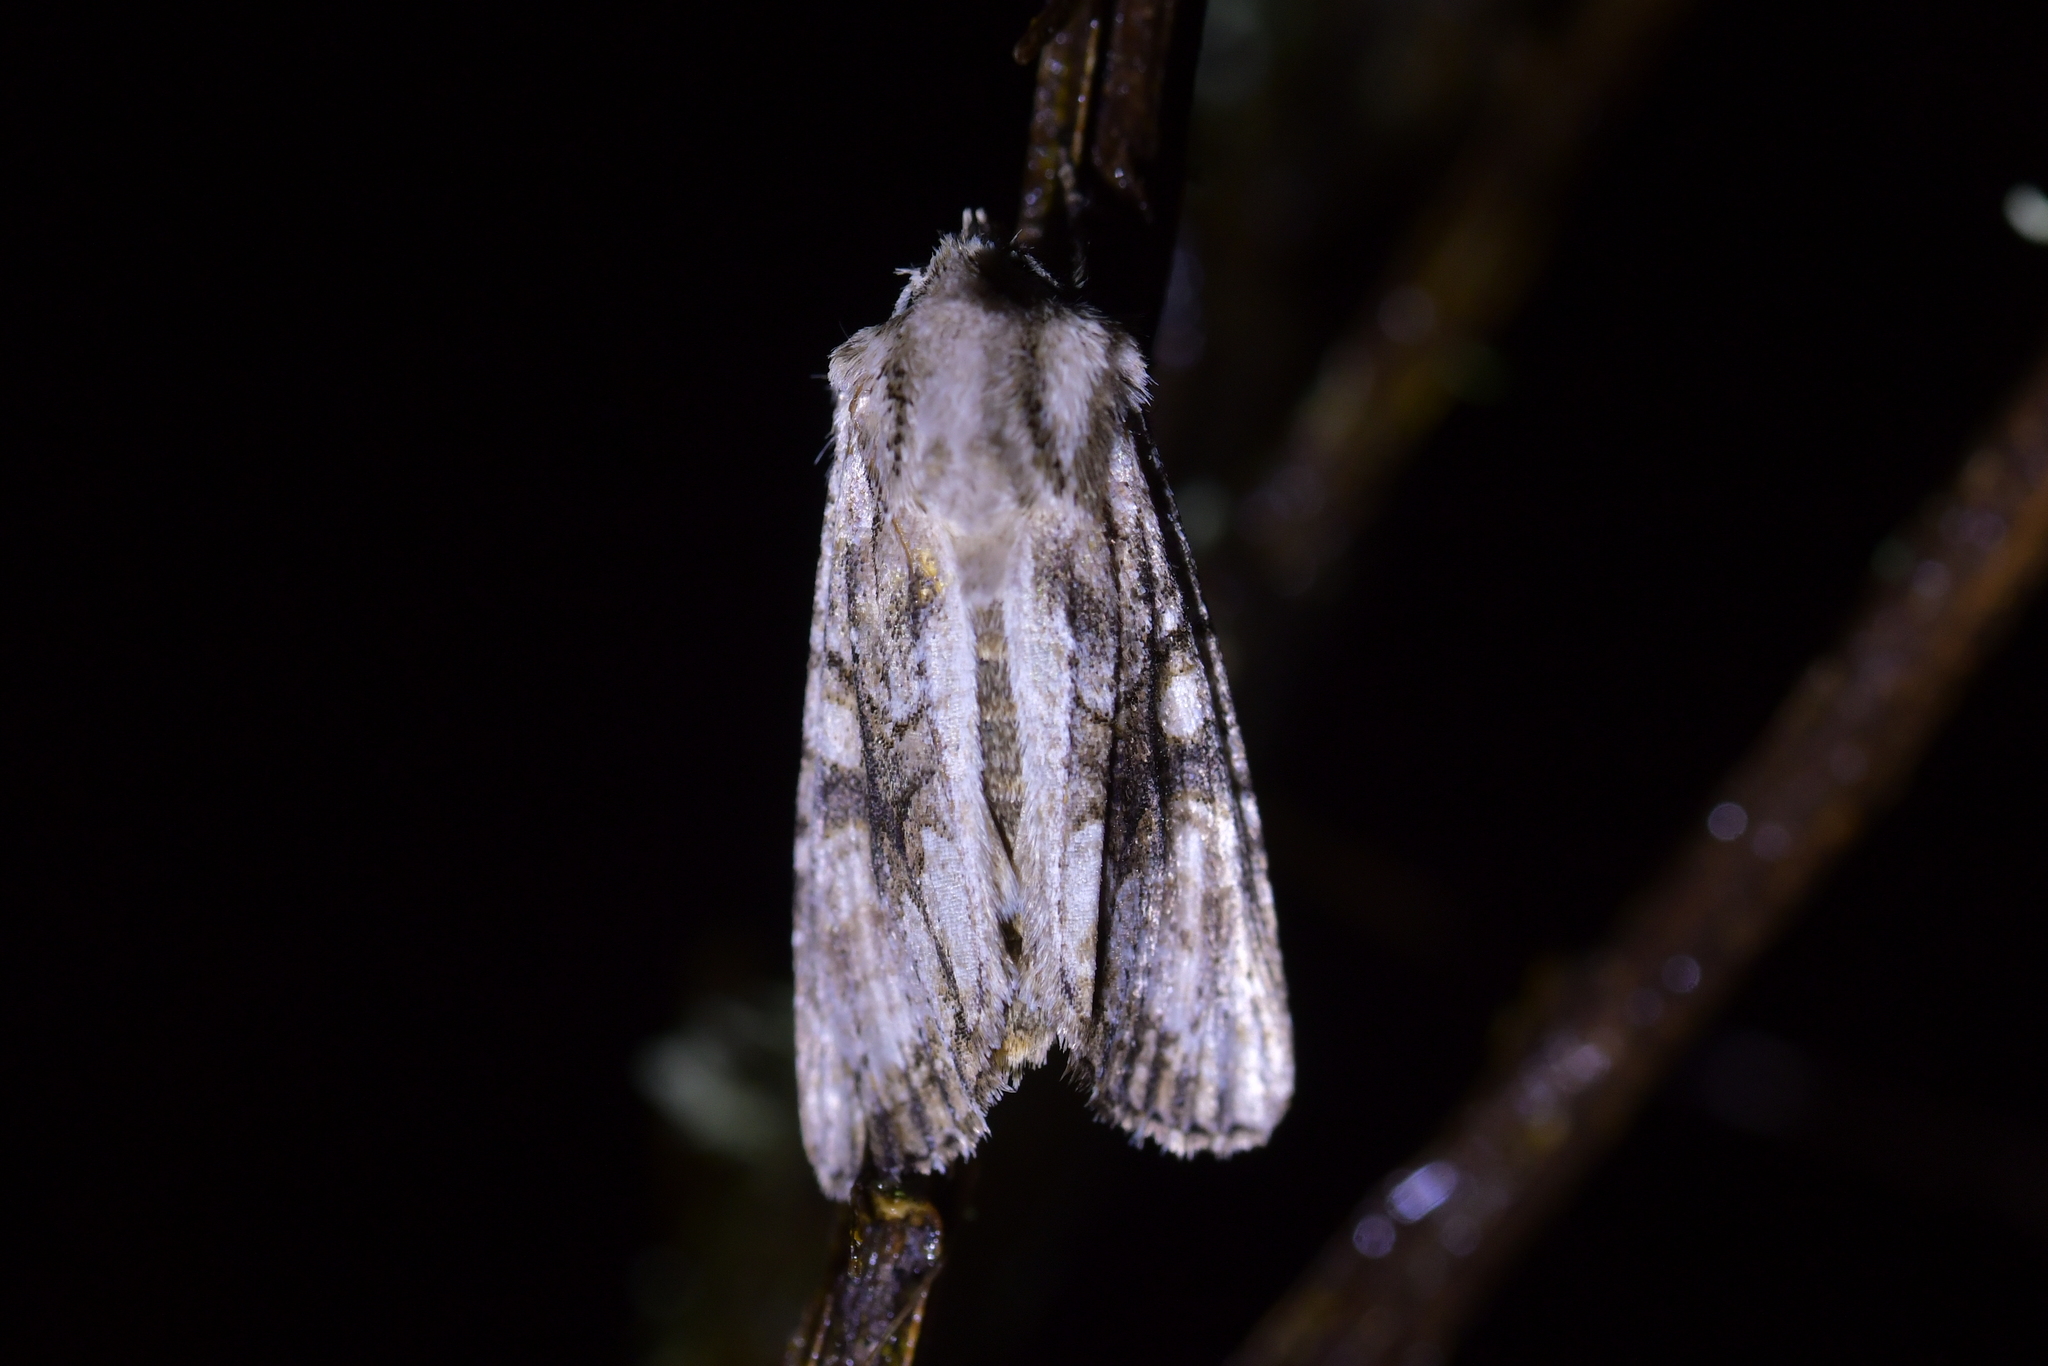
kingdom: Animalia
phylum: Arthropoda
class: Insecta
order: Lepidoptera
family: Noctuidae
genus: Ichneutica
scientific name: Ichneutica mutans
